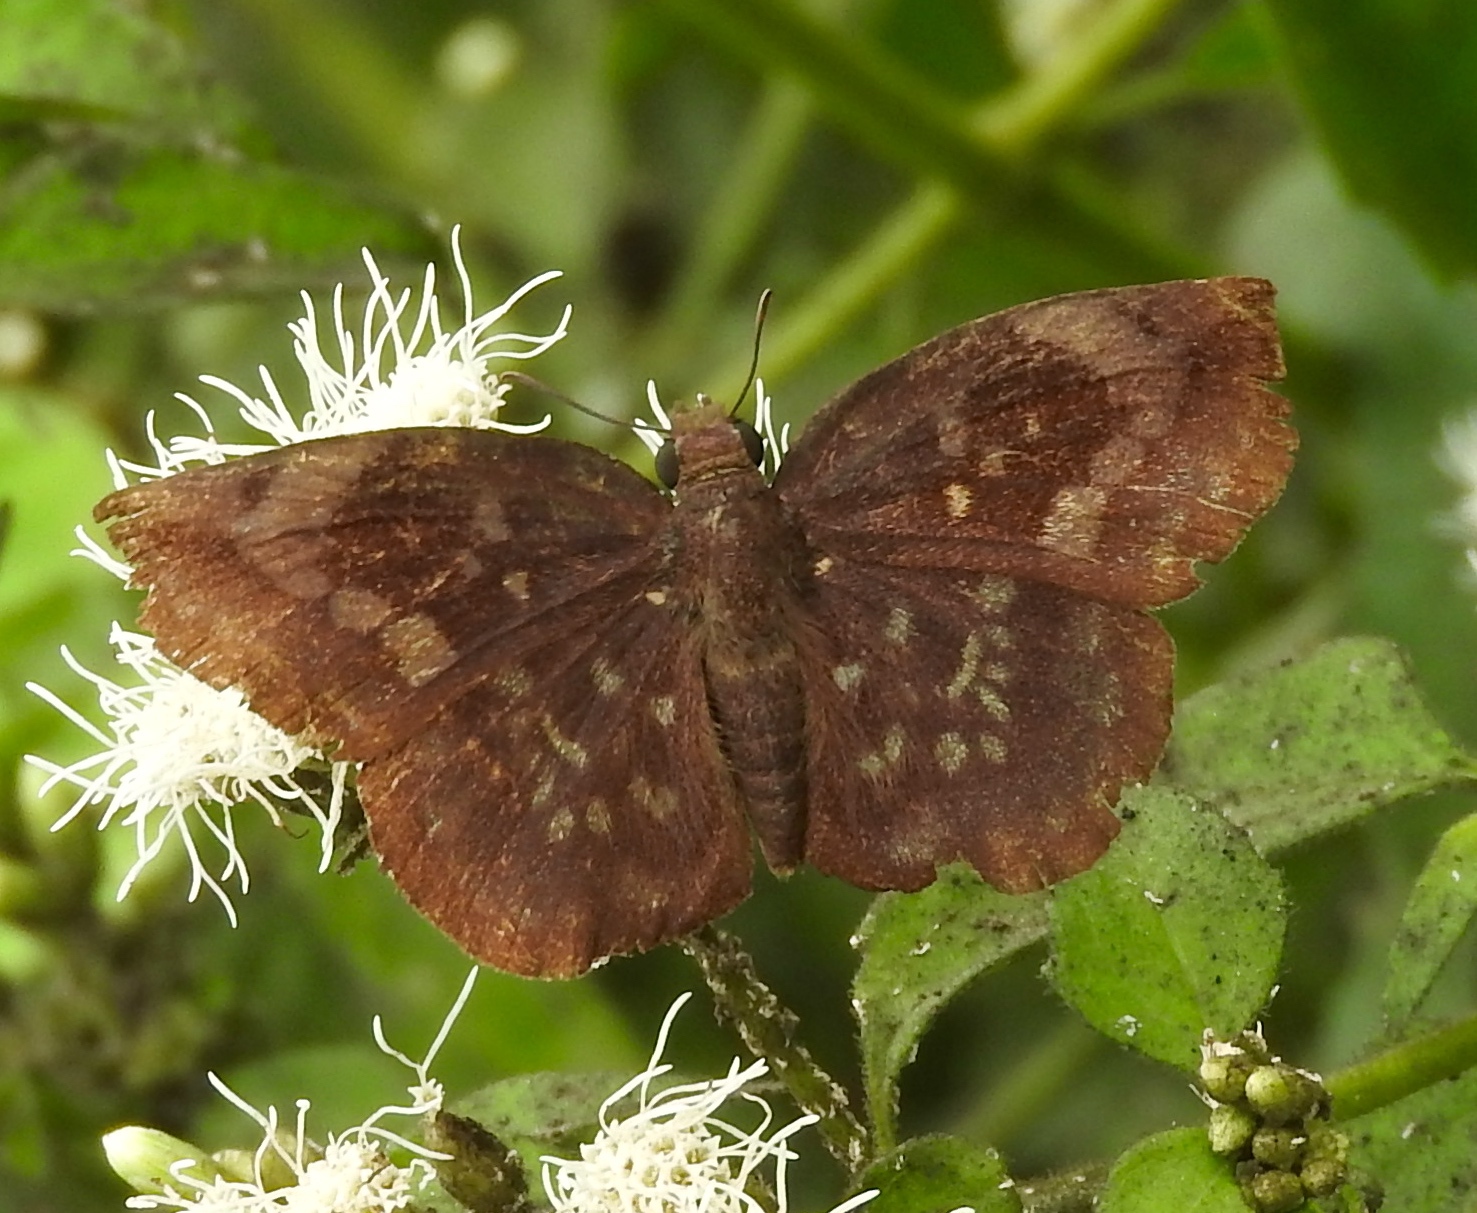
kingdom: Animalia
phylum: Arthropoda
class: Insecta
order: Lepidoptera
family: Hesperiidae
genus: Achlyodes
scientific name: Achlyodes thraso
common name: Sickle-winged skipper
